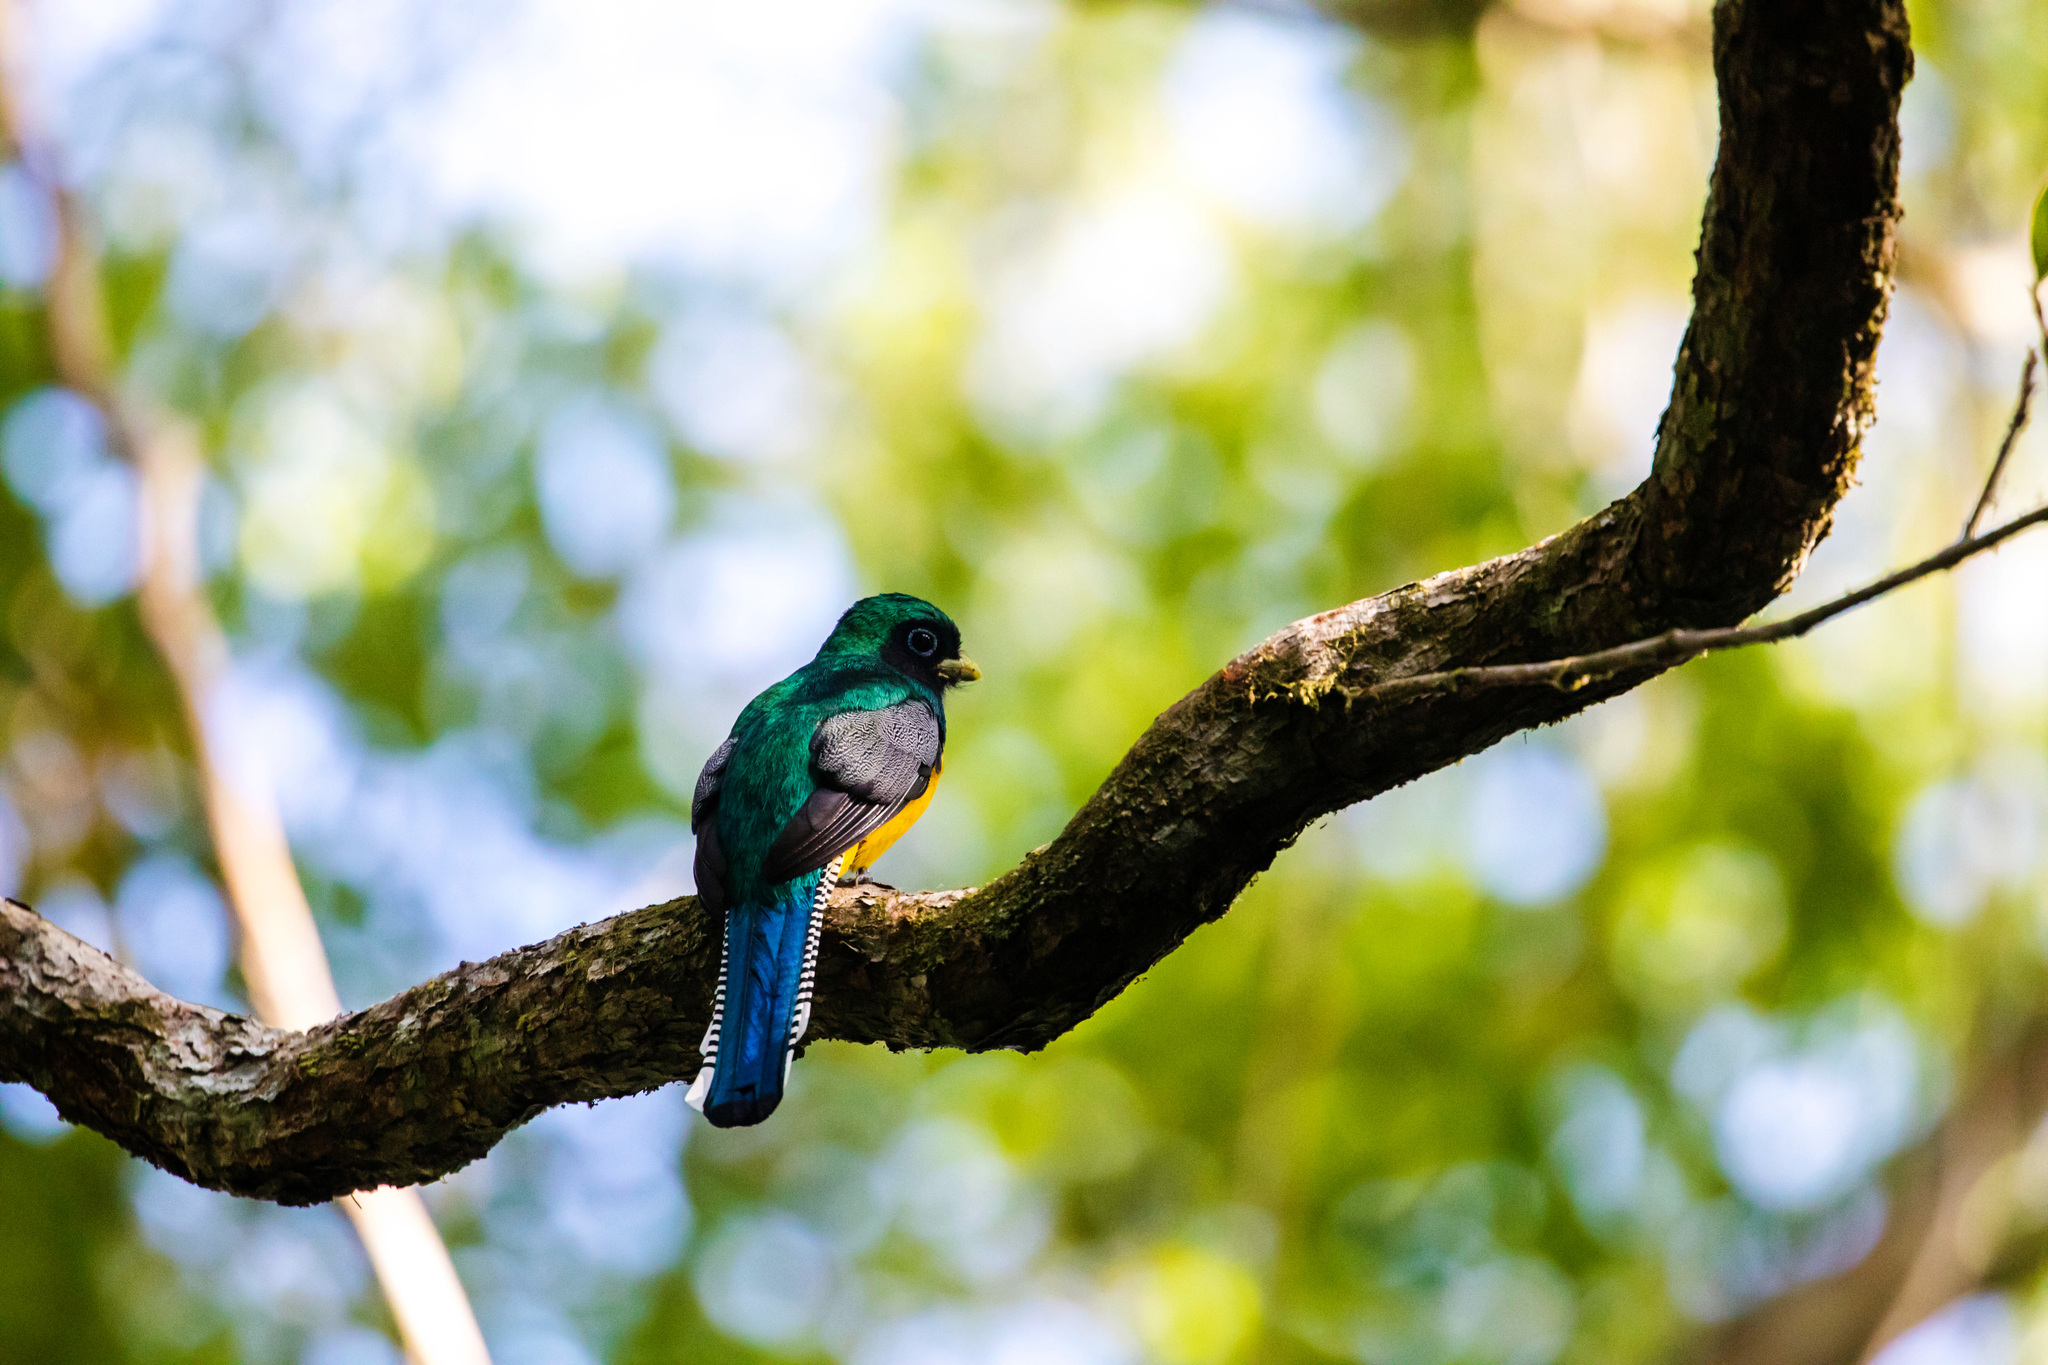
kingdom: Animalia
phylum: Chordata
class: Aves
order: Trogoniformes
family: Trogonidae
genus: Trogon
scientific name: Trogon rufus
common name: Black-throated trogon
